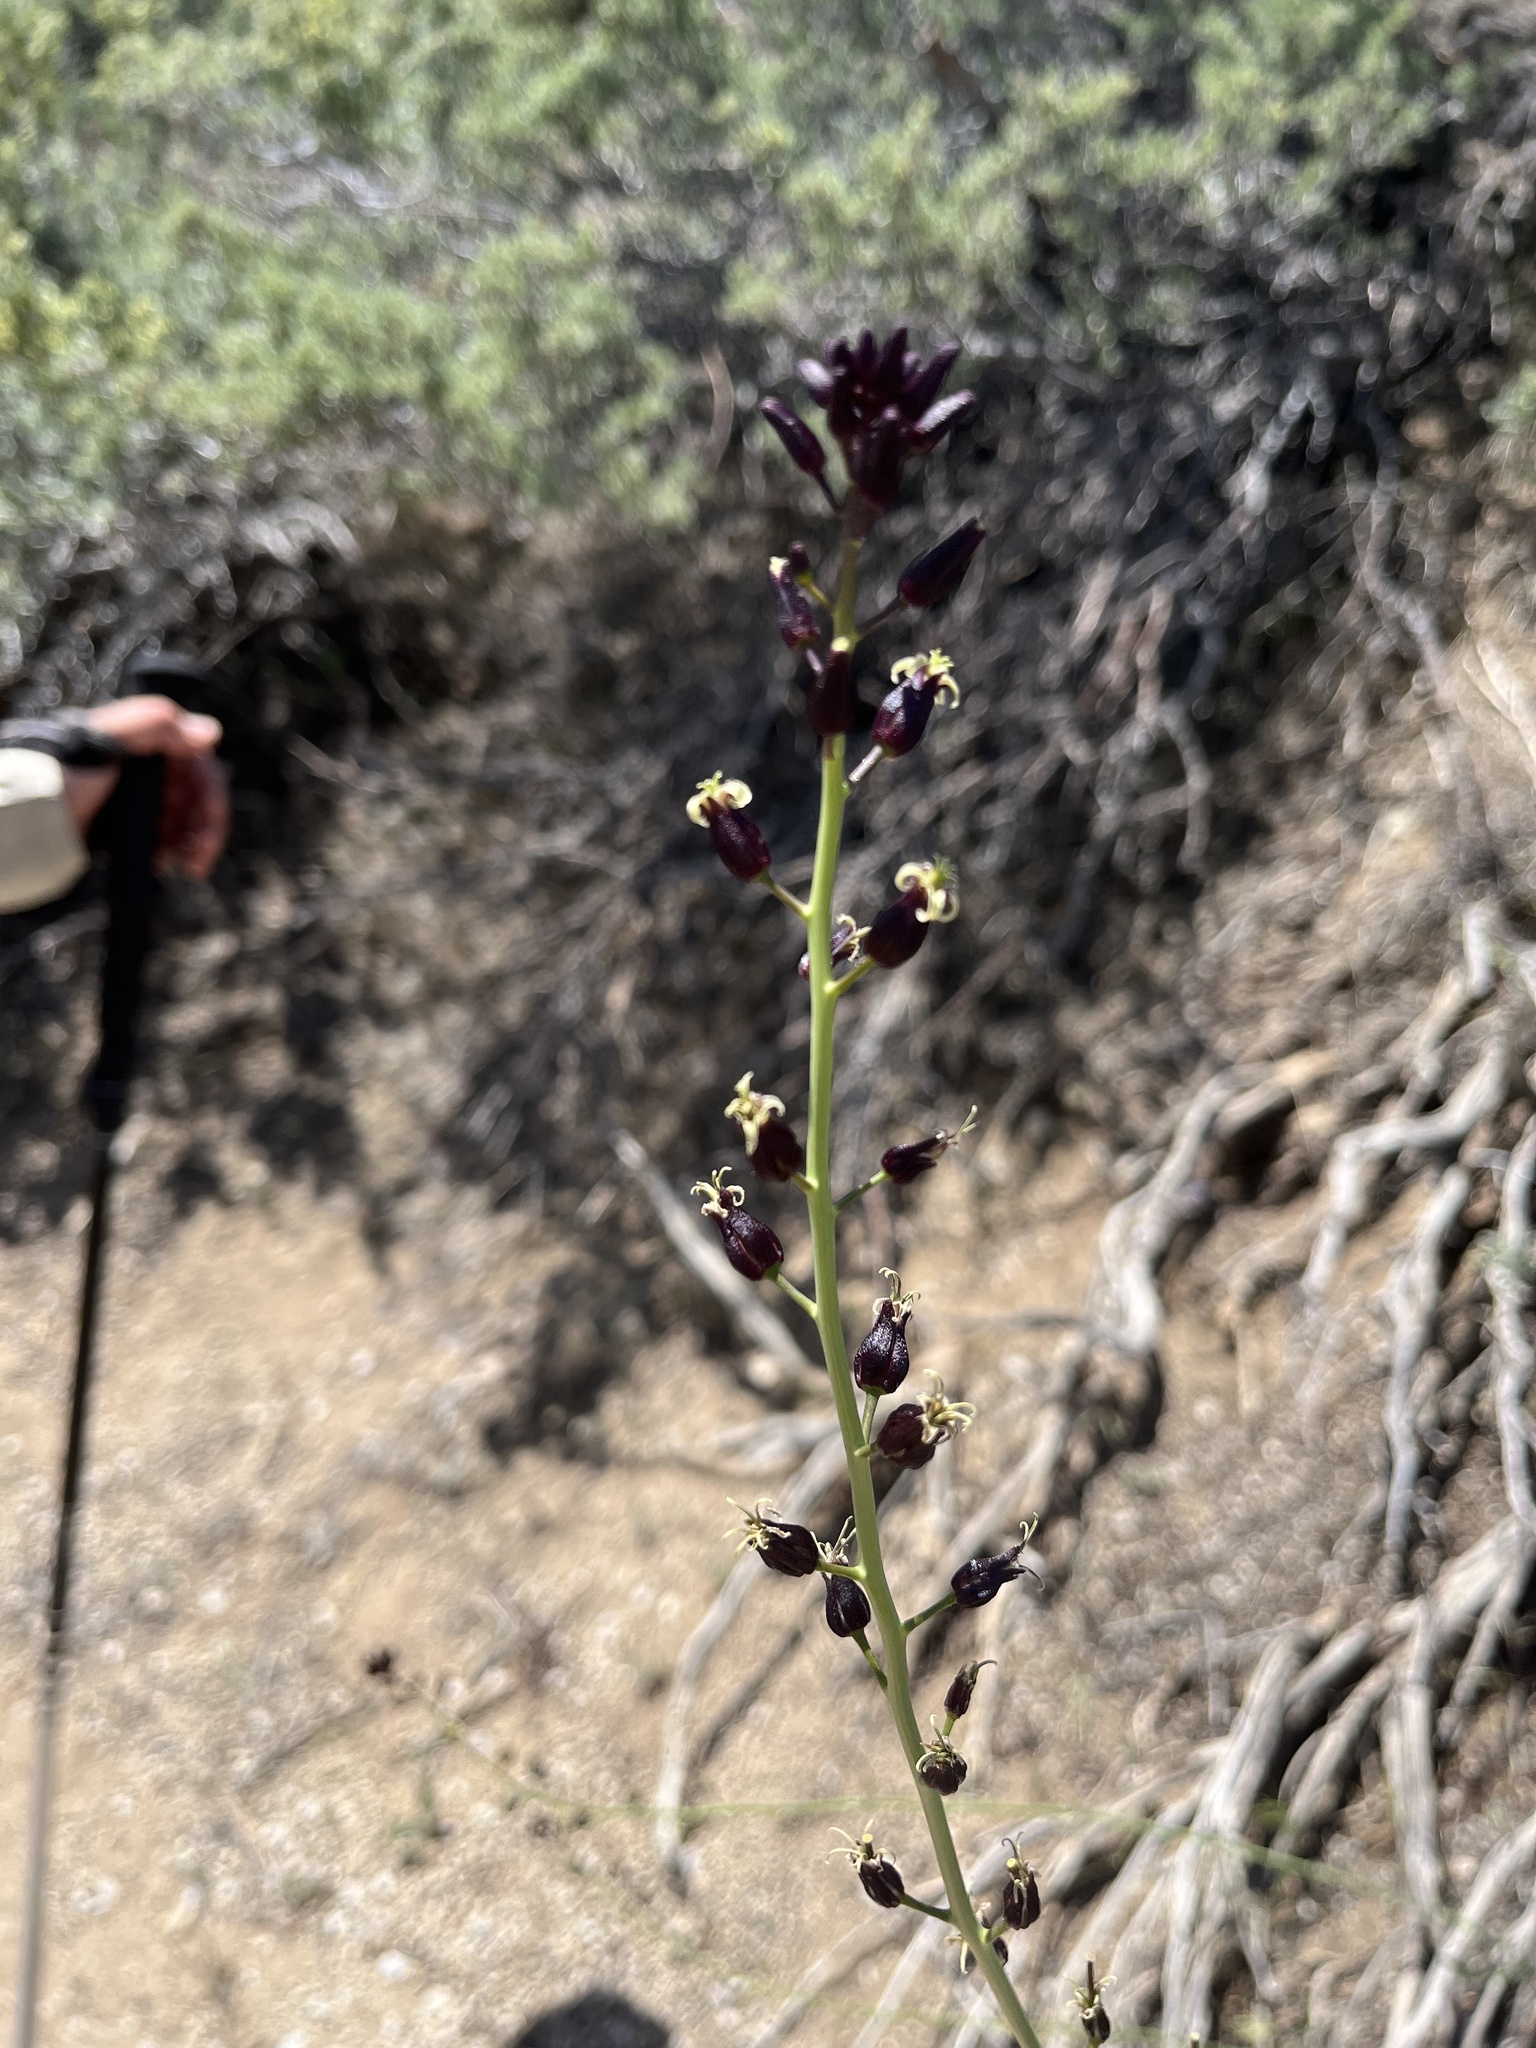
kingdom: Plantae
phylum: Tracheophyta
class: Magnoliopsida
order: Brassicales
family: Brassicaceae
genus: Streptanthus
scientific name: Streptanthus pilosus
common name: Chocolate drops
